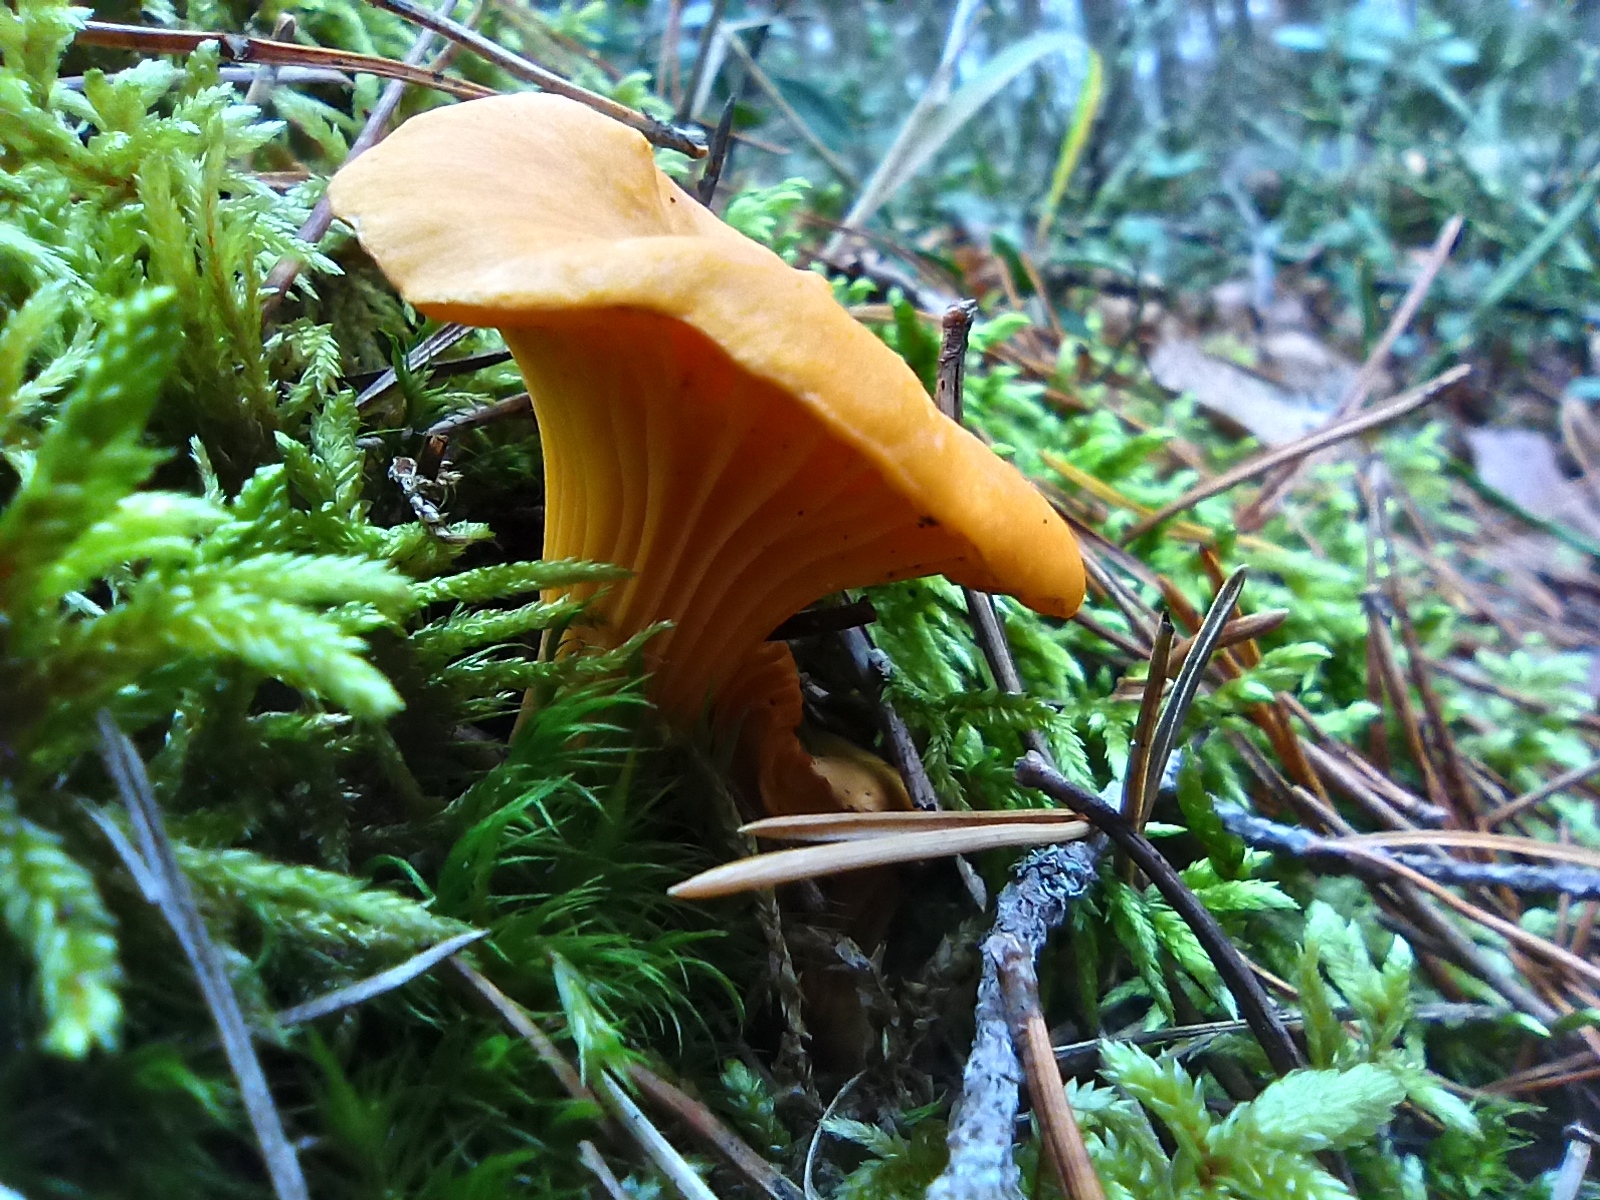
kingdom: Fungi
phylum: Basidiomycota
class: Agaricomycetes
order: Cantharellales
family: Hydnaceae
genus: Cantharellus
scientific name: Cantharellus cibarius
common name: Chanterelle
